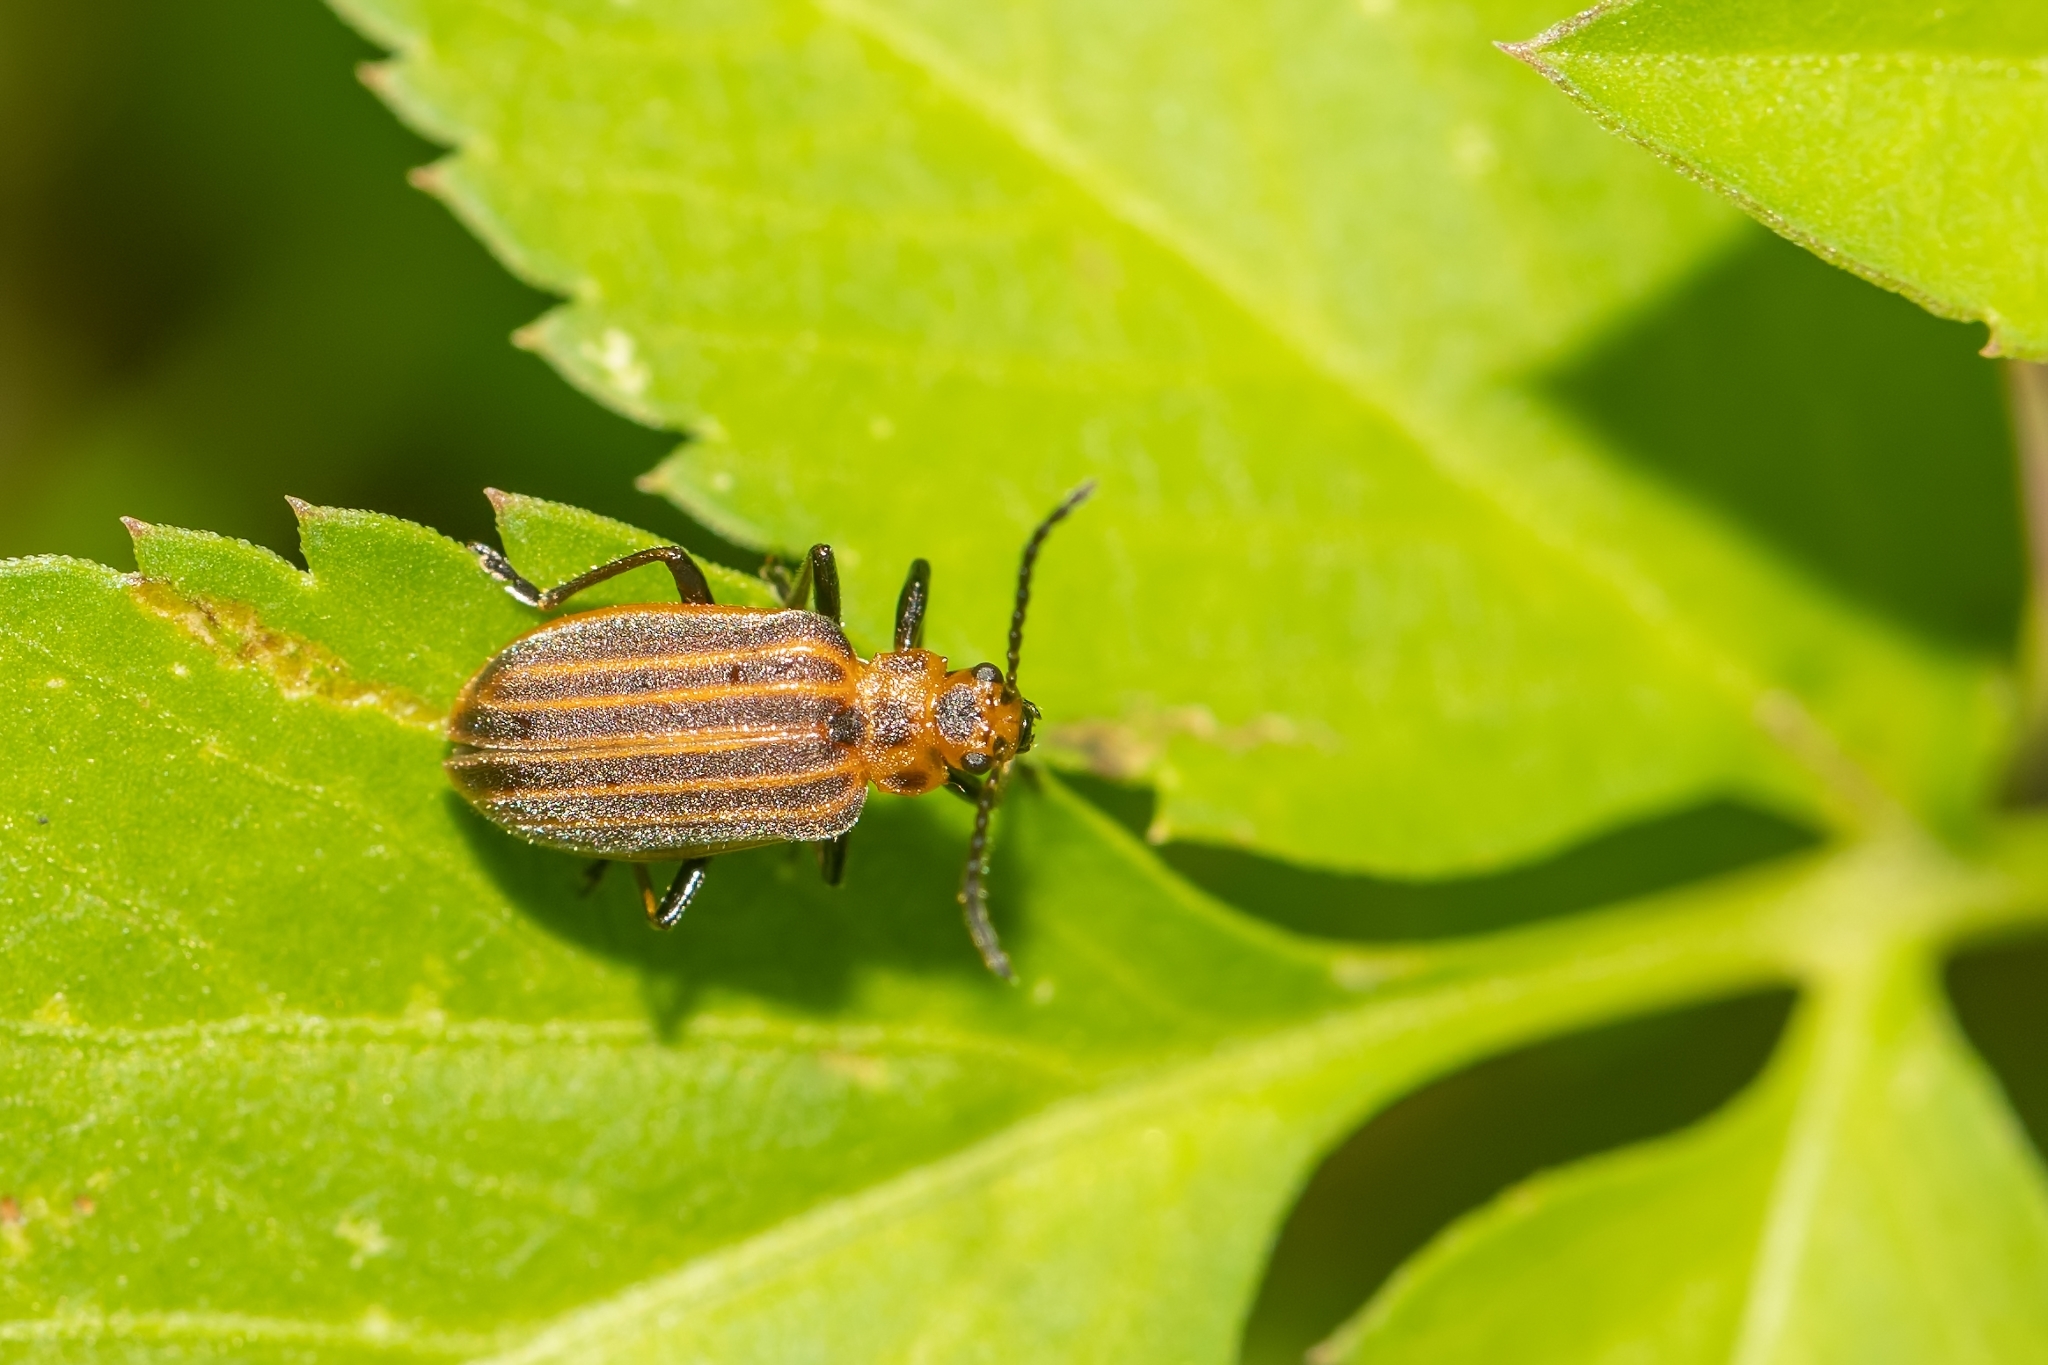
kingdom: Animalia
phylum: Arthropoda
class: Insecta
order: Coleoptera
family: Chrysomelidae
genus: Neolochmaea
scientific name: Neolochmaea dilatipennis
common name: Skeletonizing leaf beetle
